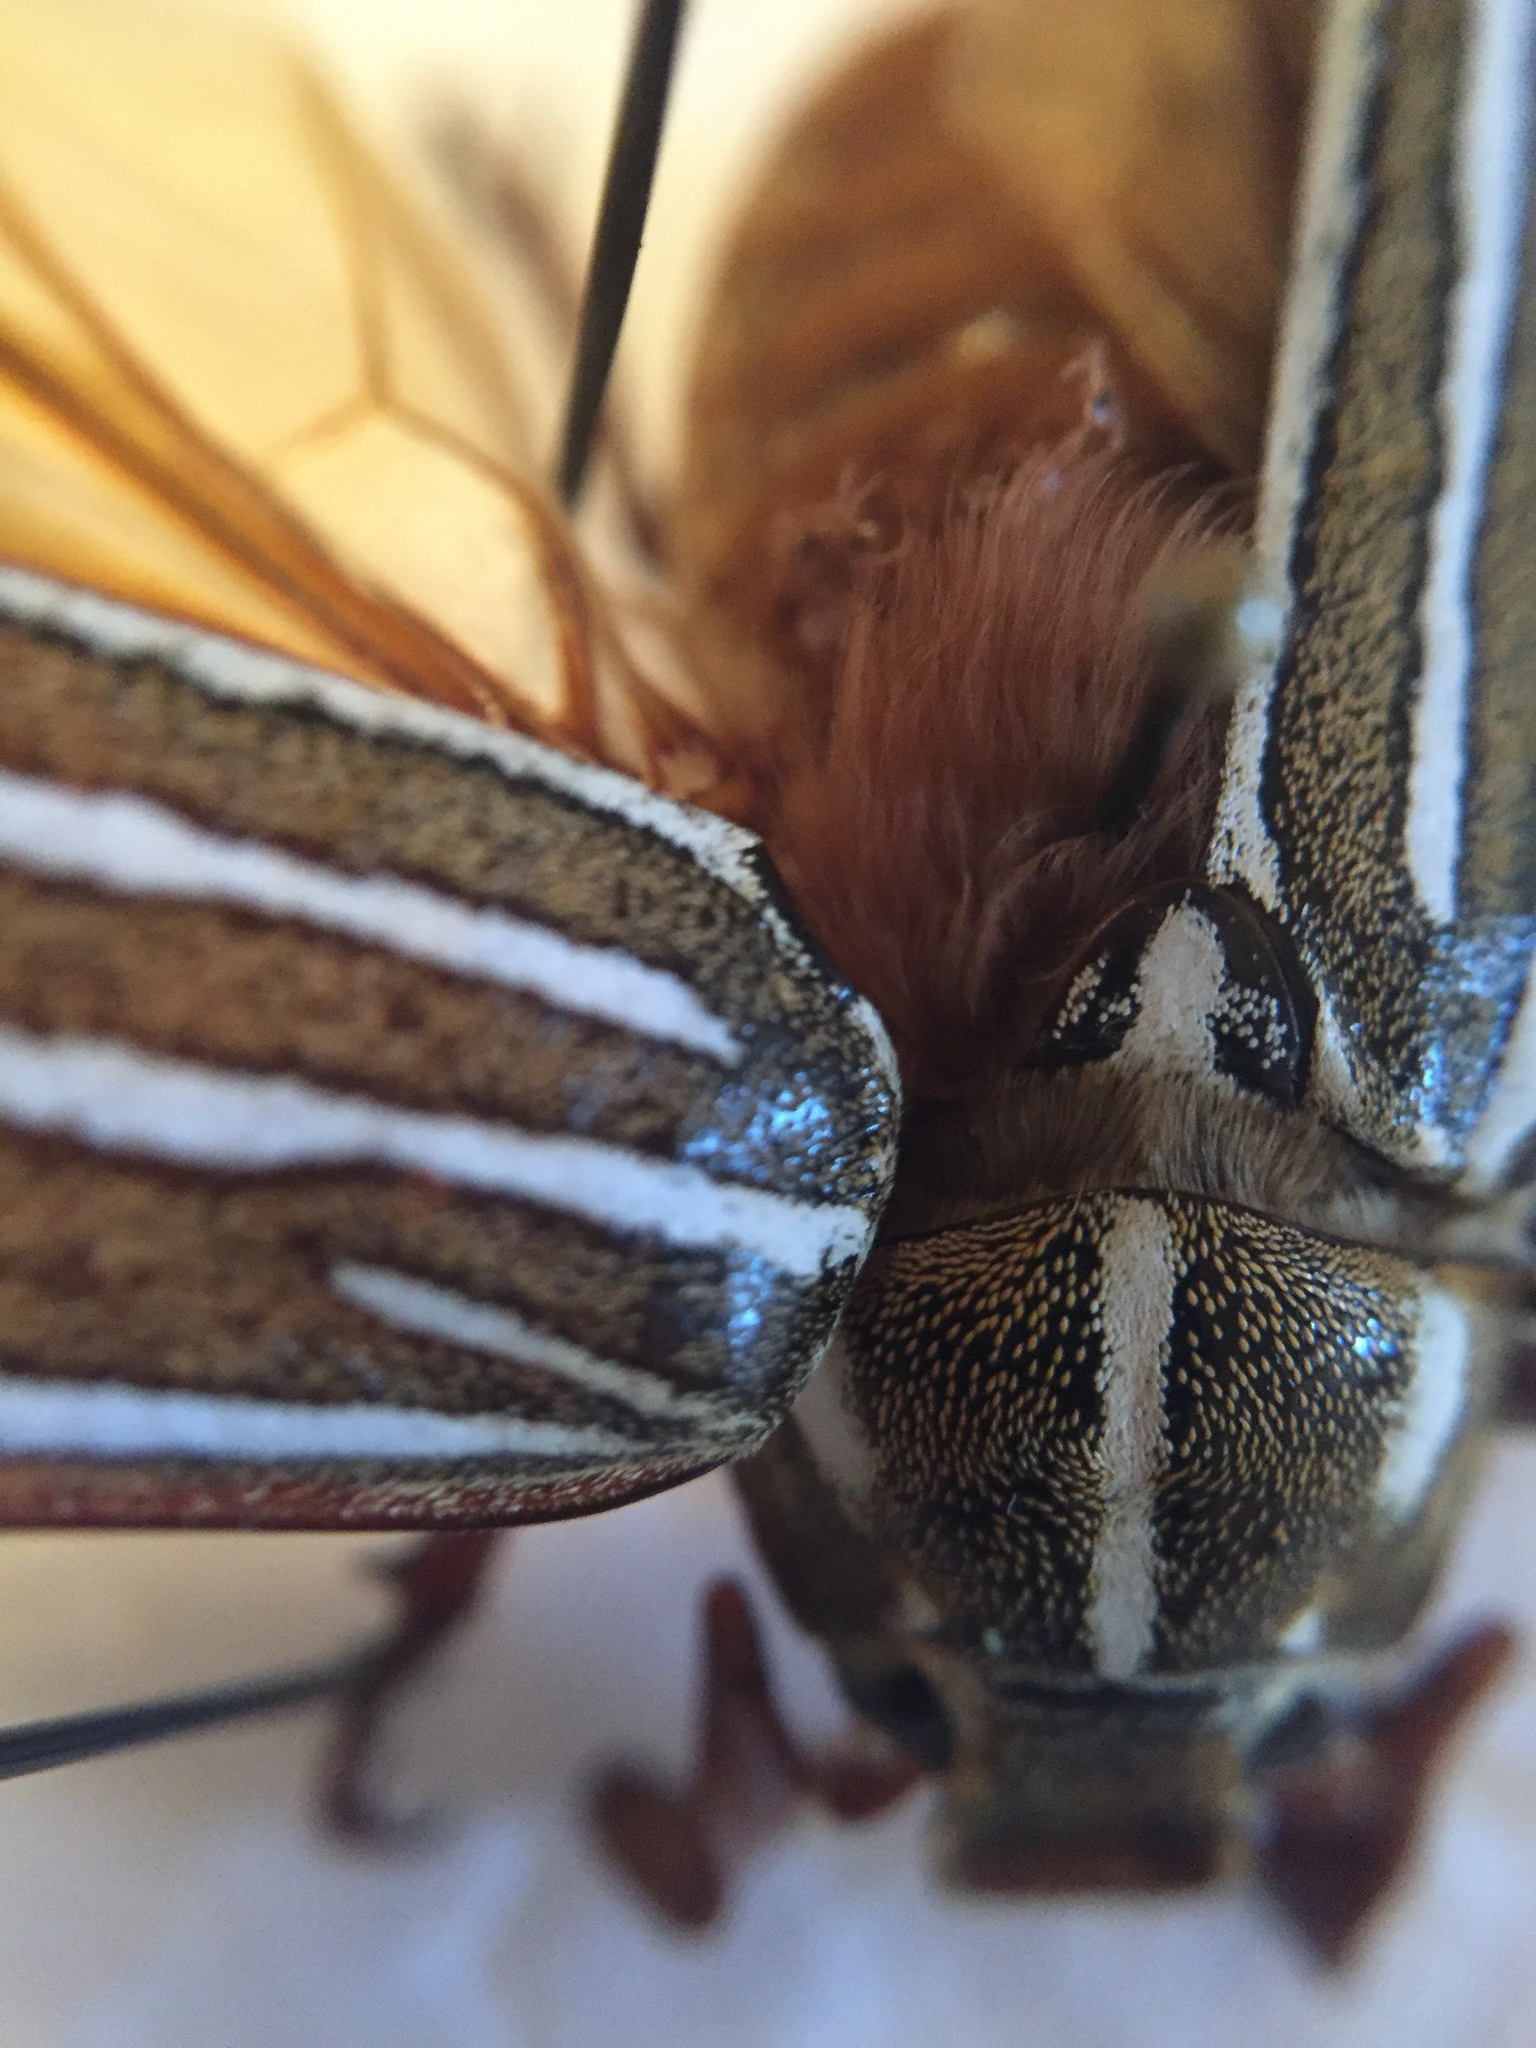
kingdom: Animalia
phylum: Arthropoda
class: Insecta
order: Coleoptera
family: Scarabaeidae
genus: Polyphylla
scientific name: Polyphylla decemlineata
